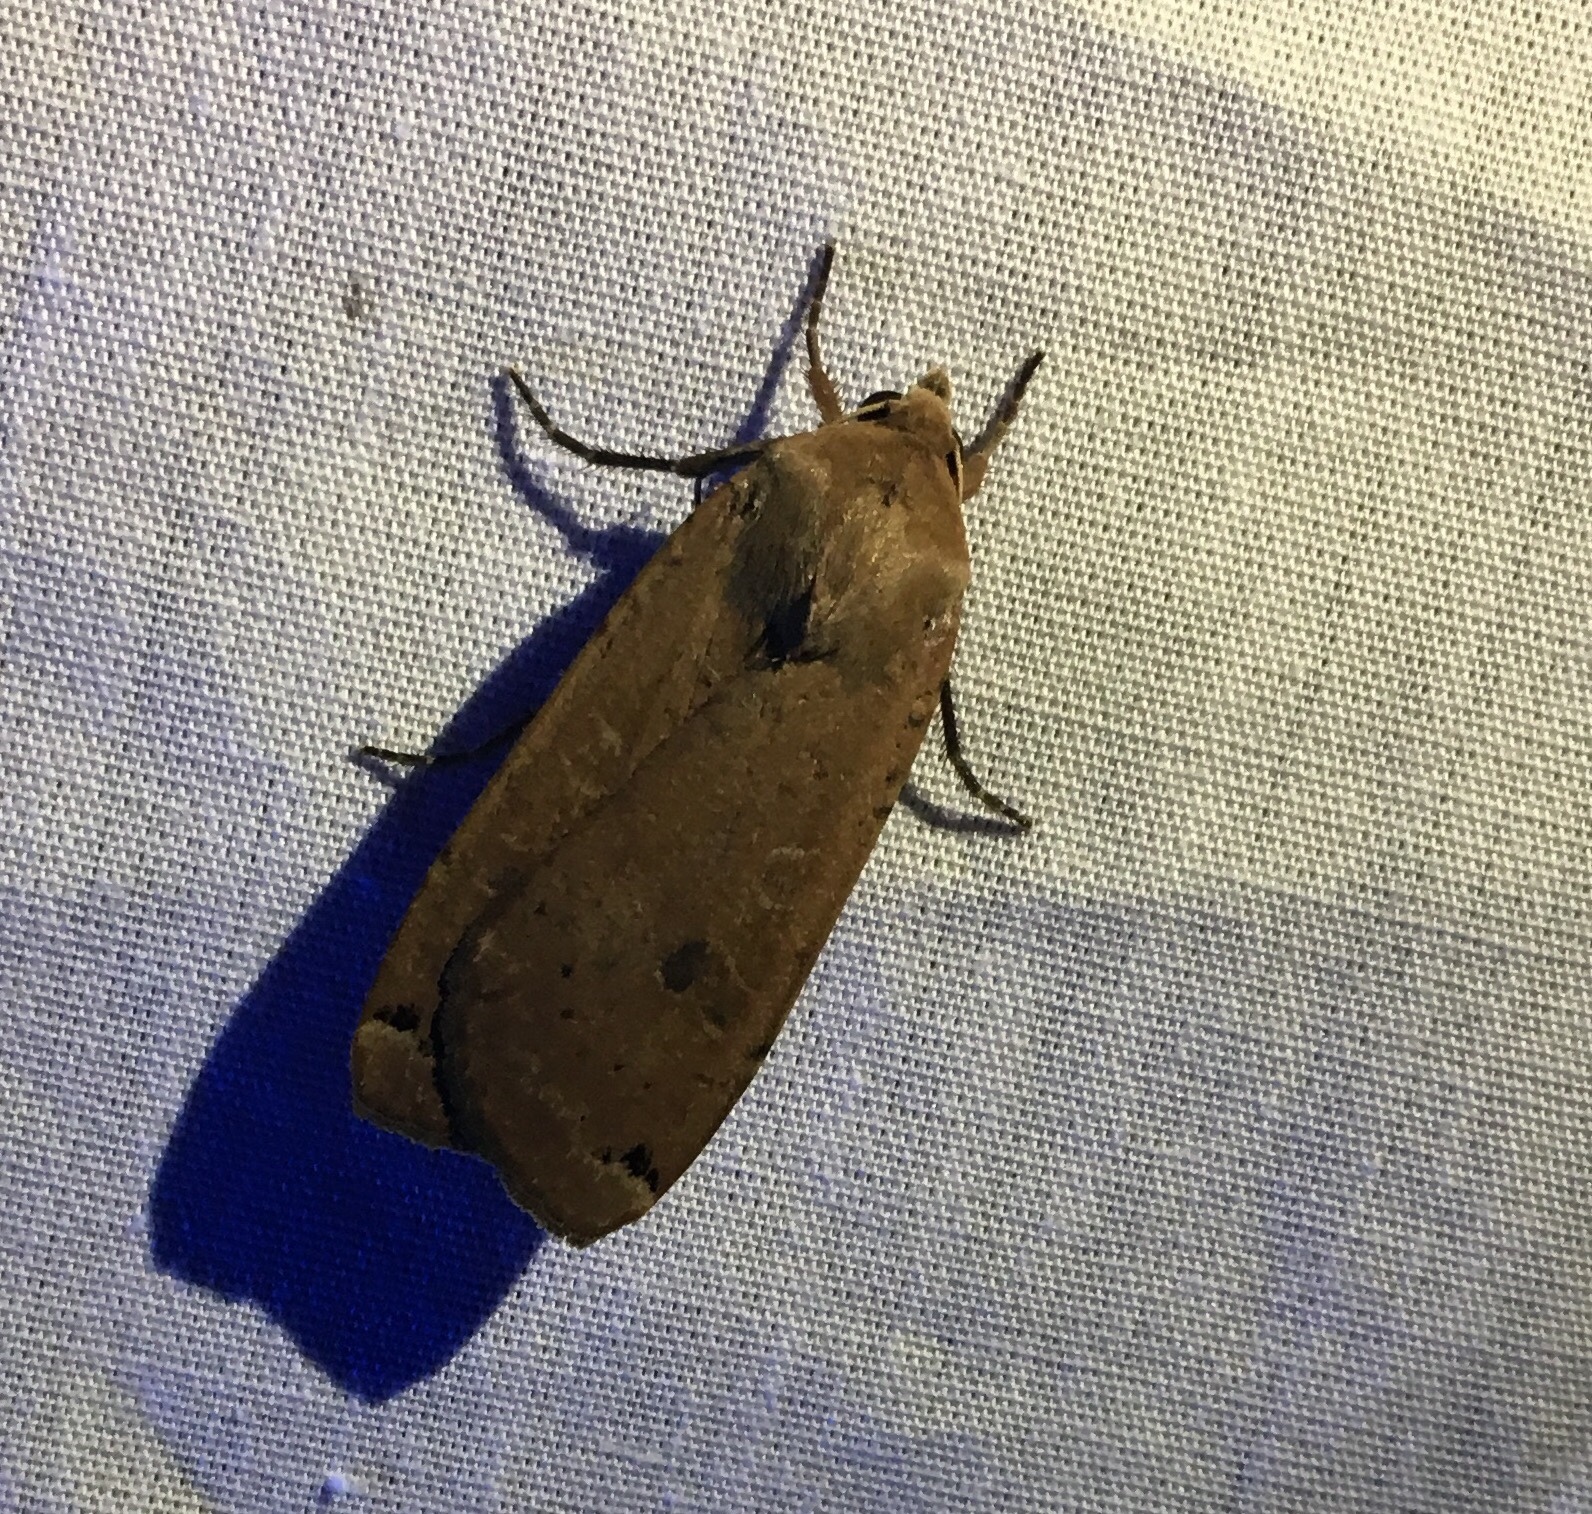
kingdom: Animalia
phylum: Arthropoda
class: Insecta
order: Lepidoptera
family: Noctuidae
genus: Noctua
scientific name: Noctua pronuba
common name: Large yellow underwing
